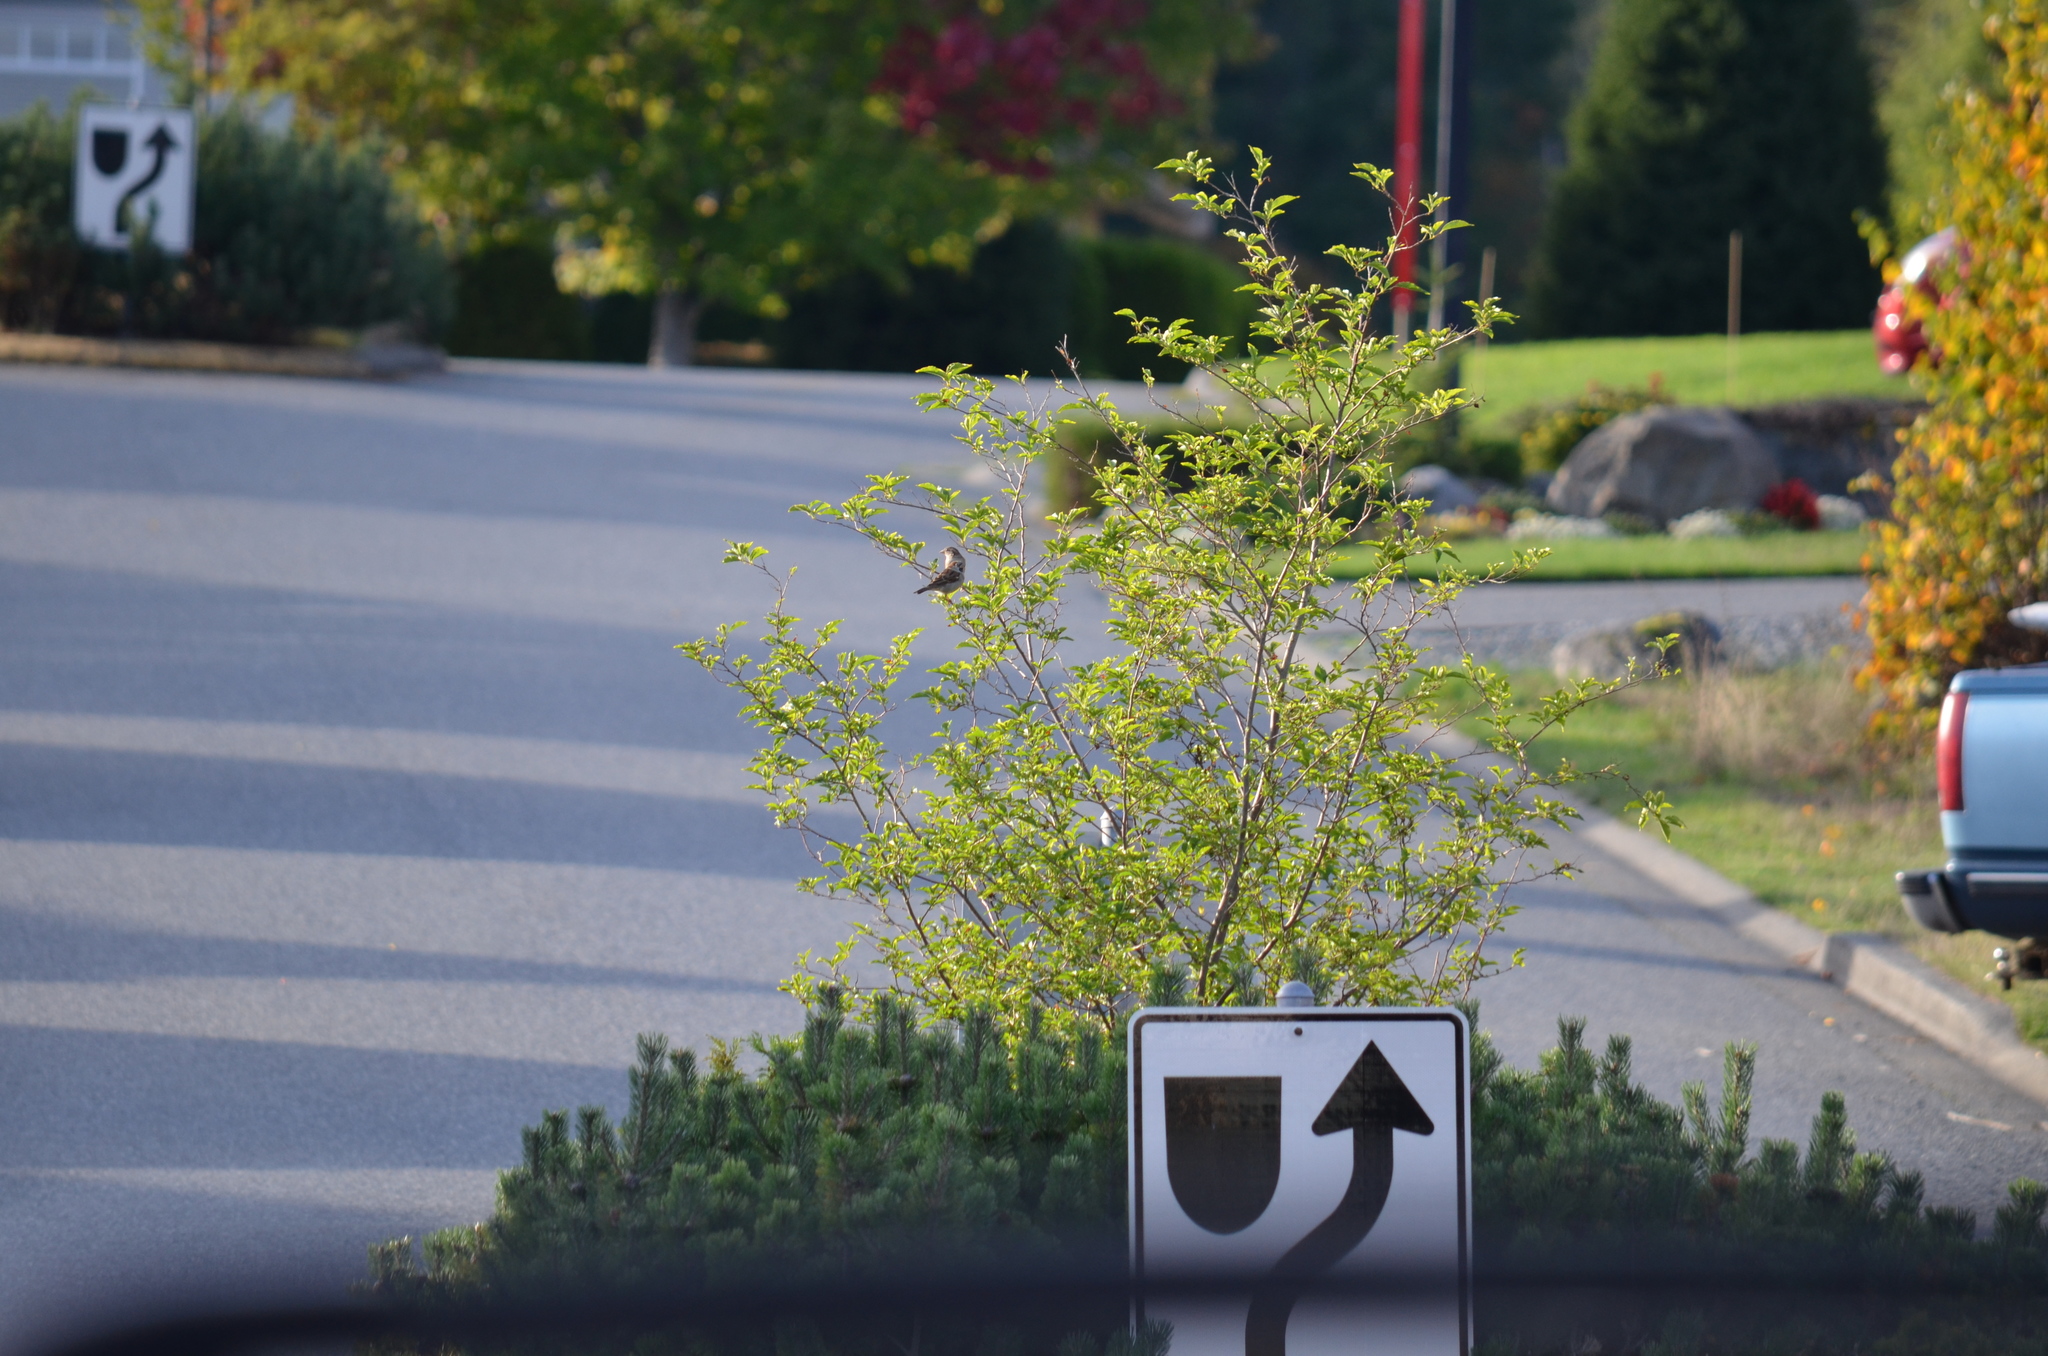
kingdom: Animalia
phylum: Chordata
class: Aves
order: Passeriformes
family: Passeridae
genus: Passer
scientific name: Passer domesticus
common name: House sparrow
